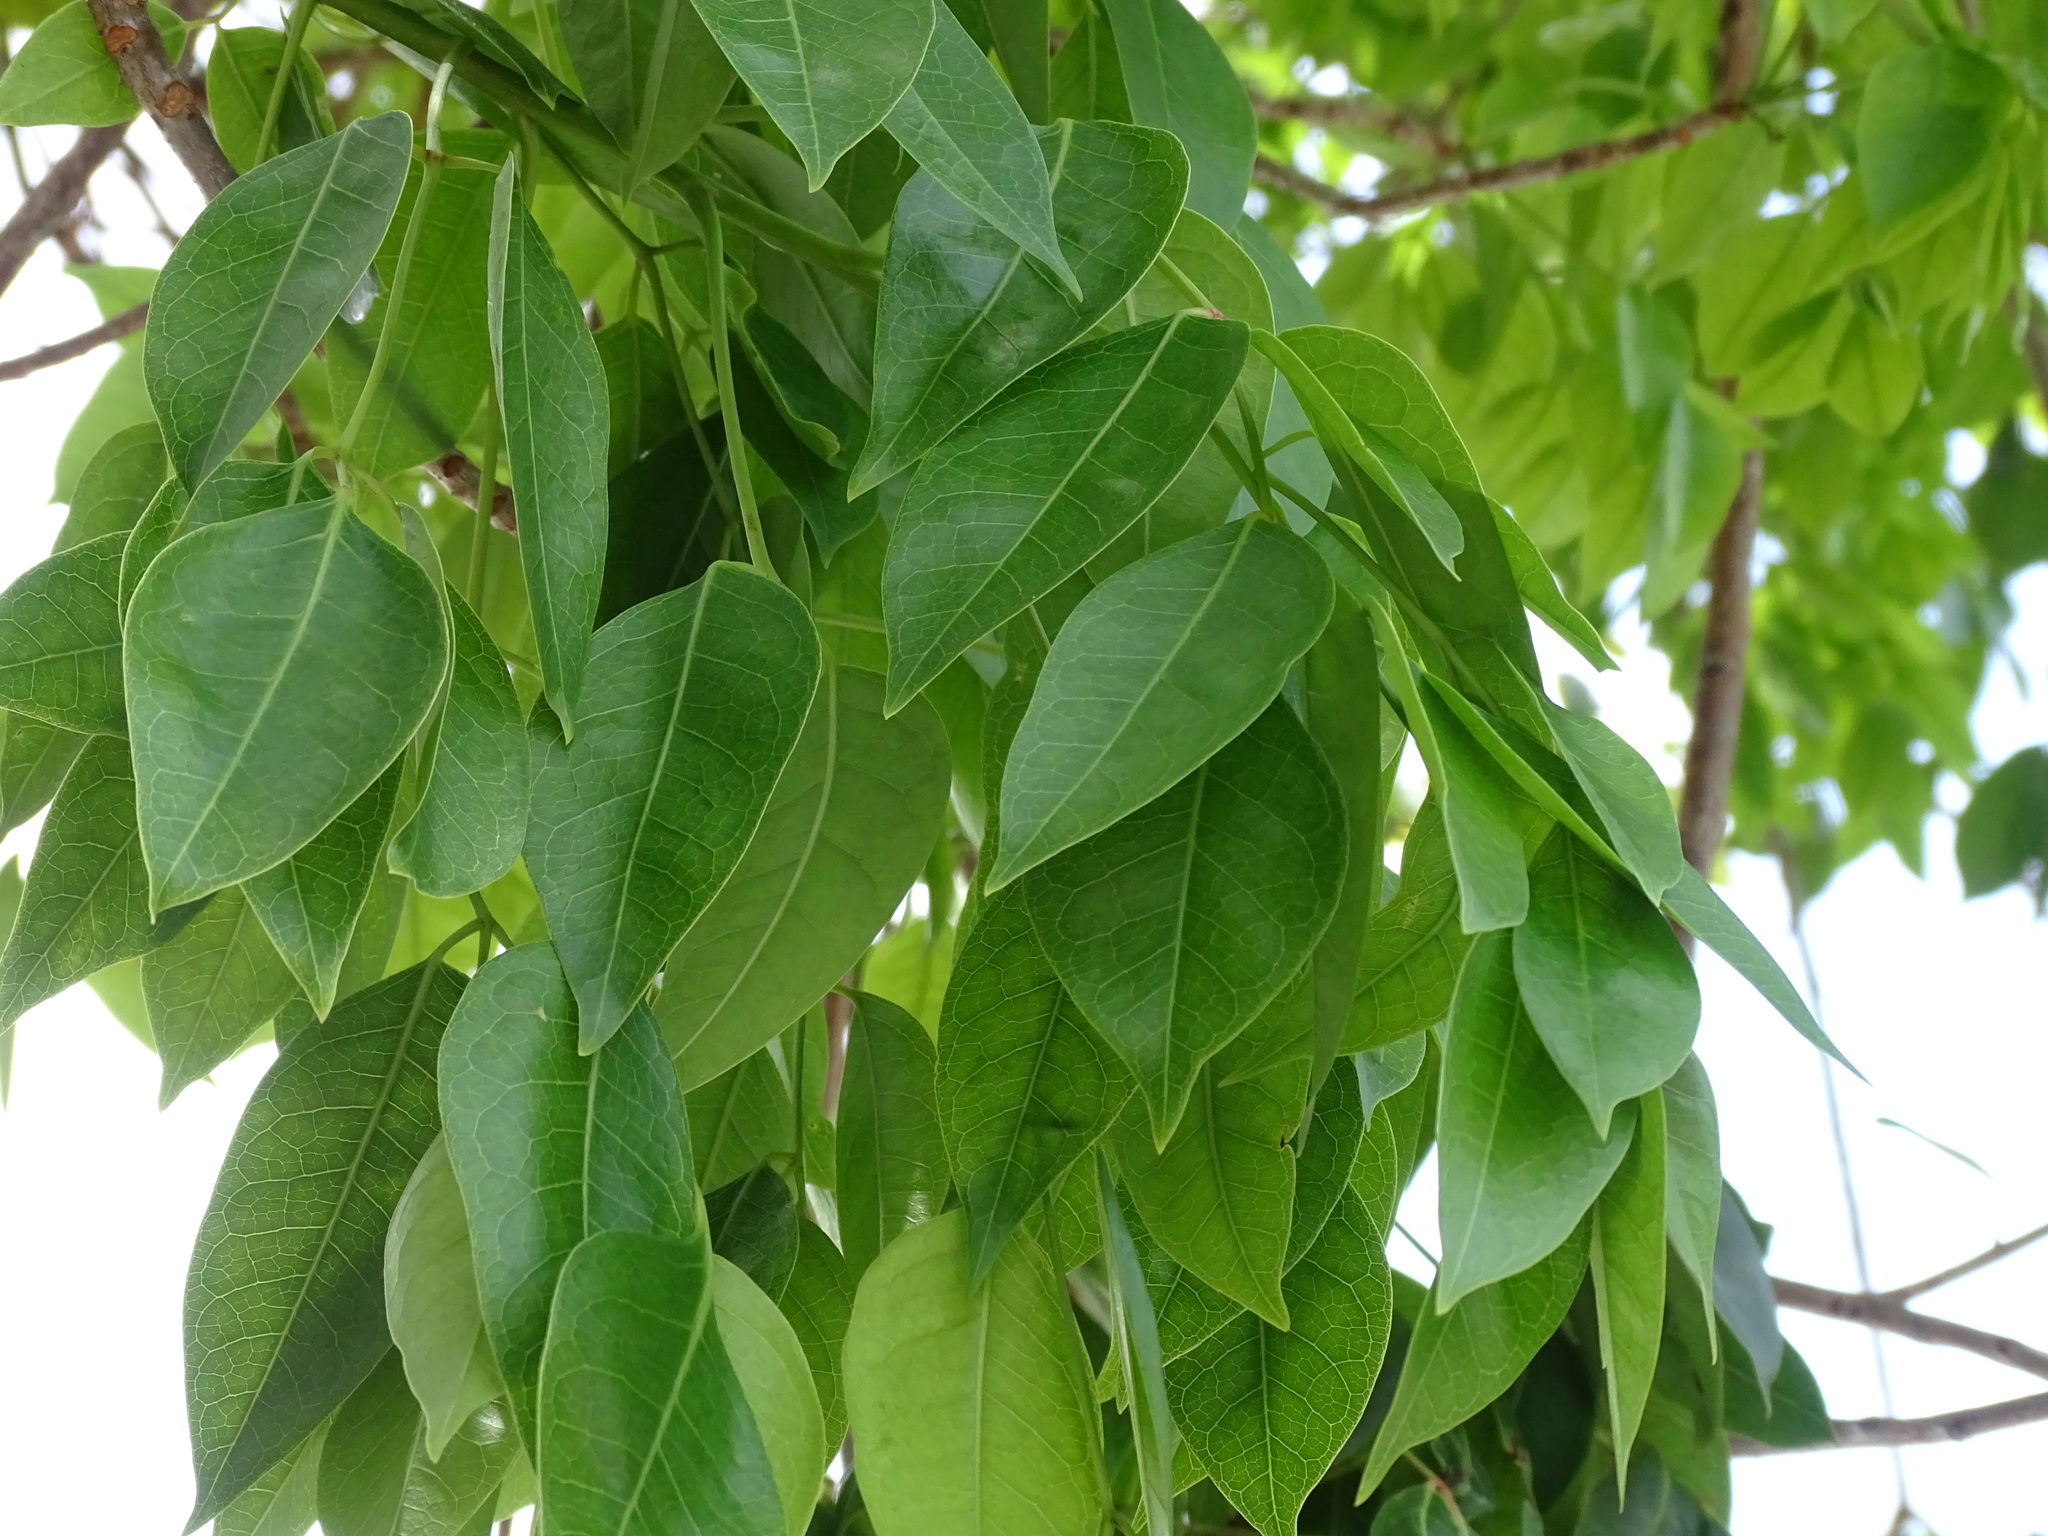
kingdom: Plantae
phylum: Tracheophyta
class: Magnoliopsida
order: Sapindales
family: Burseraceae
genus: Bursera
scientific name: Bursera simaruba
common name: Turpentine tree
